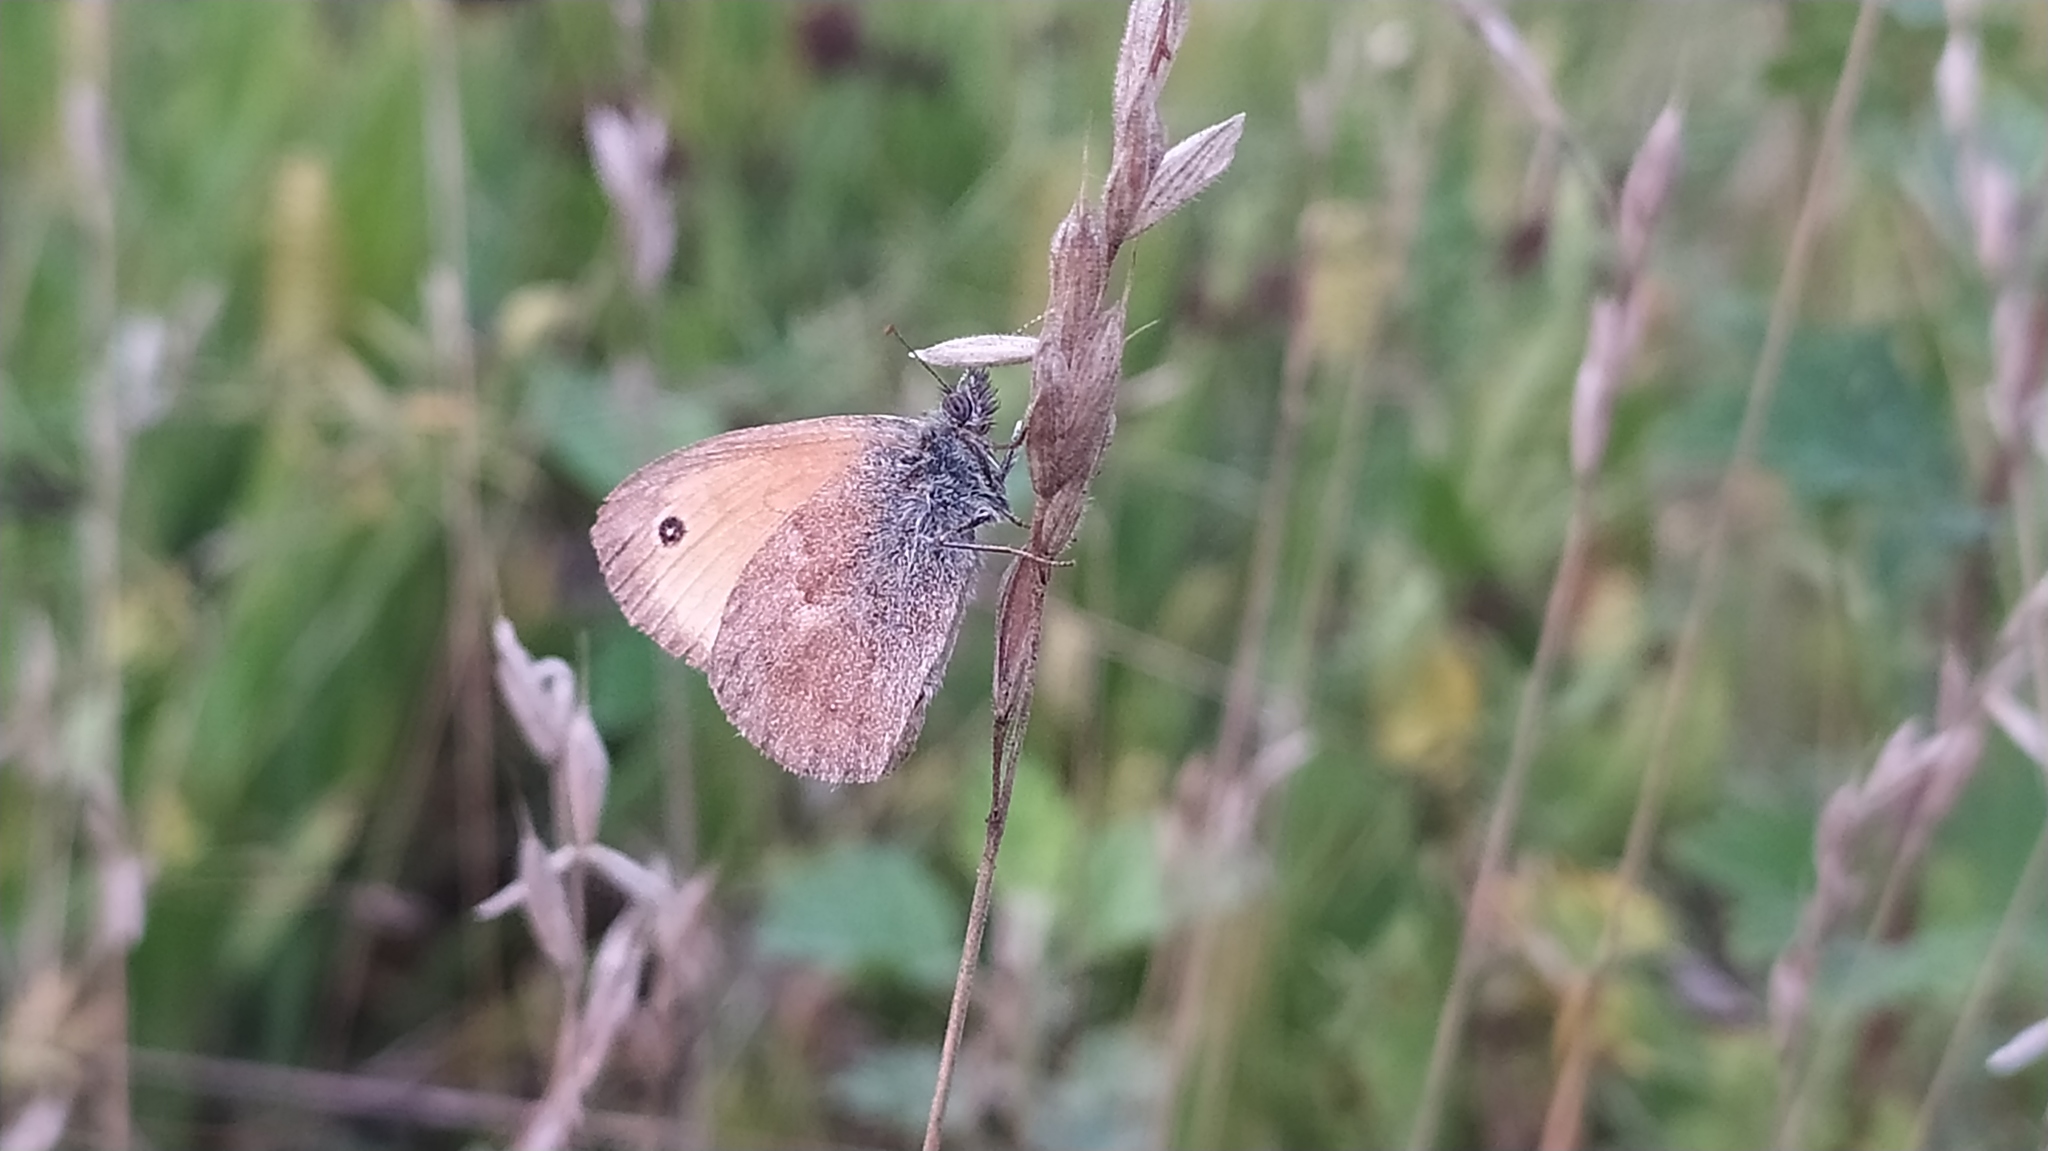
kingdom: Animalia
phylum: Arthropoda
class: Insecta
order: Lepidoptera
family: Nymphalidae
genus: Coenonympha
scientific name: Coenonympha pamphilus
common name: Small heath
